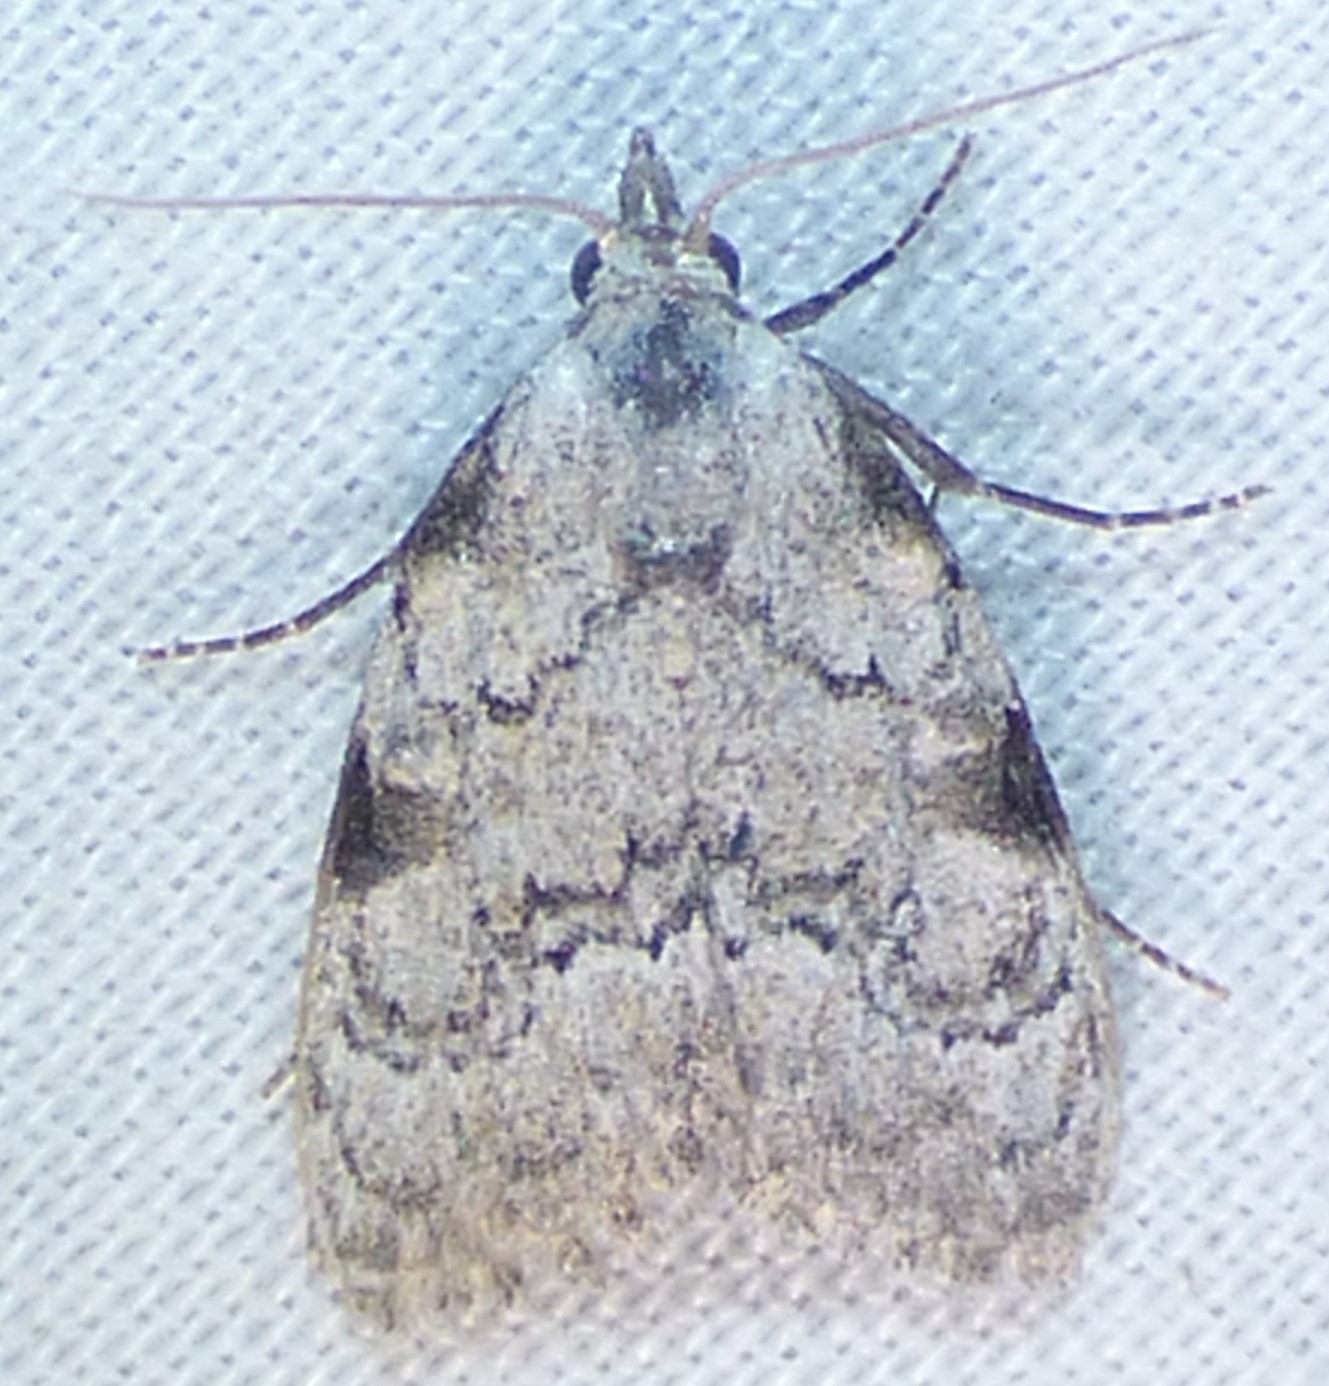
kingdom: Animalia
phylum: Arthropoda
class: Insecta
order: Lepidoptera
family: Nolidae
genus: Meganola
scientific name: Meganola minuscula
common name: Confused meganola moth
